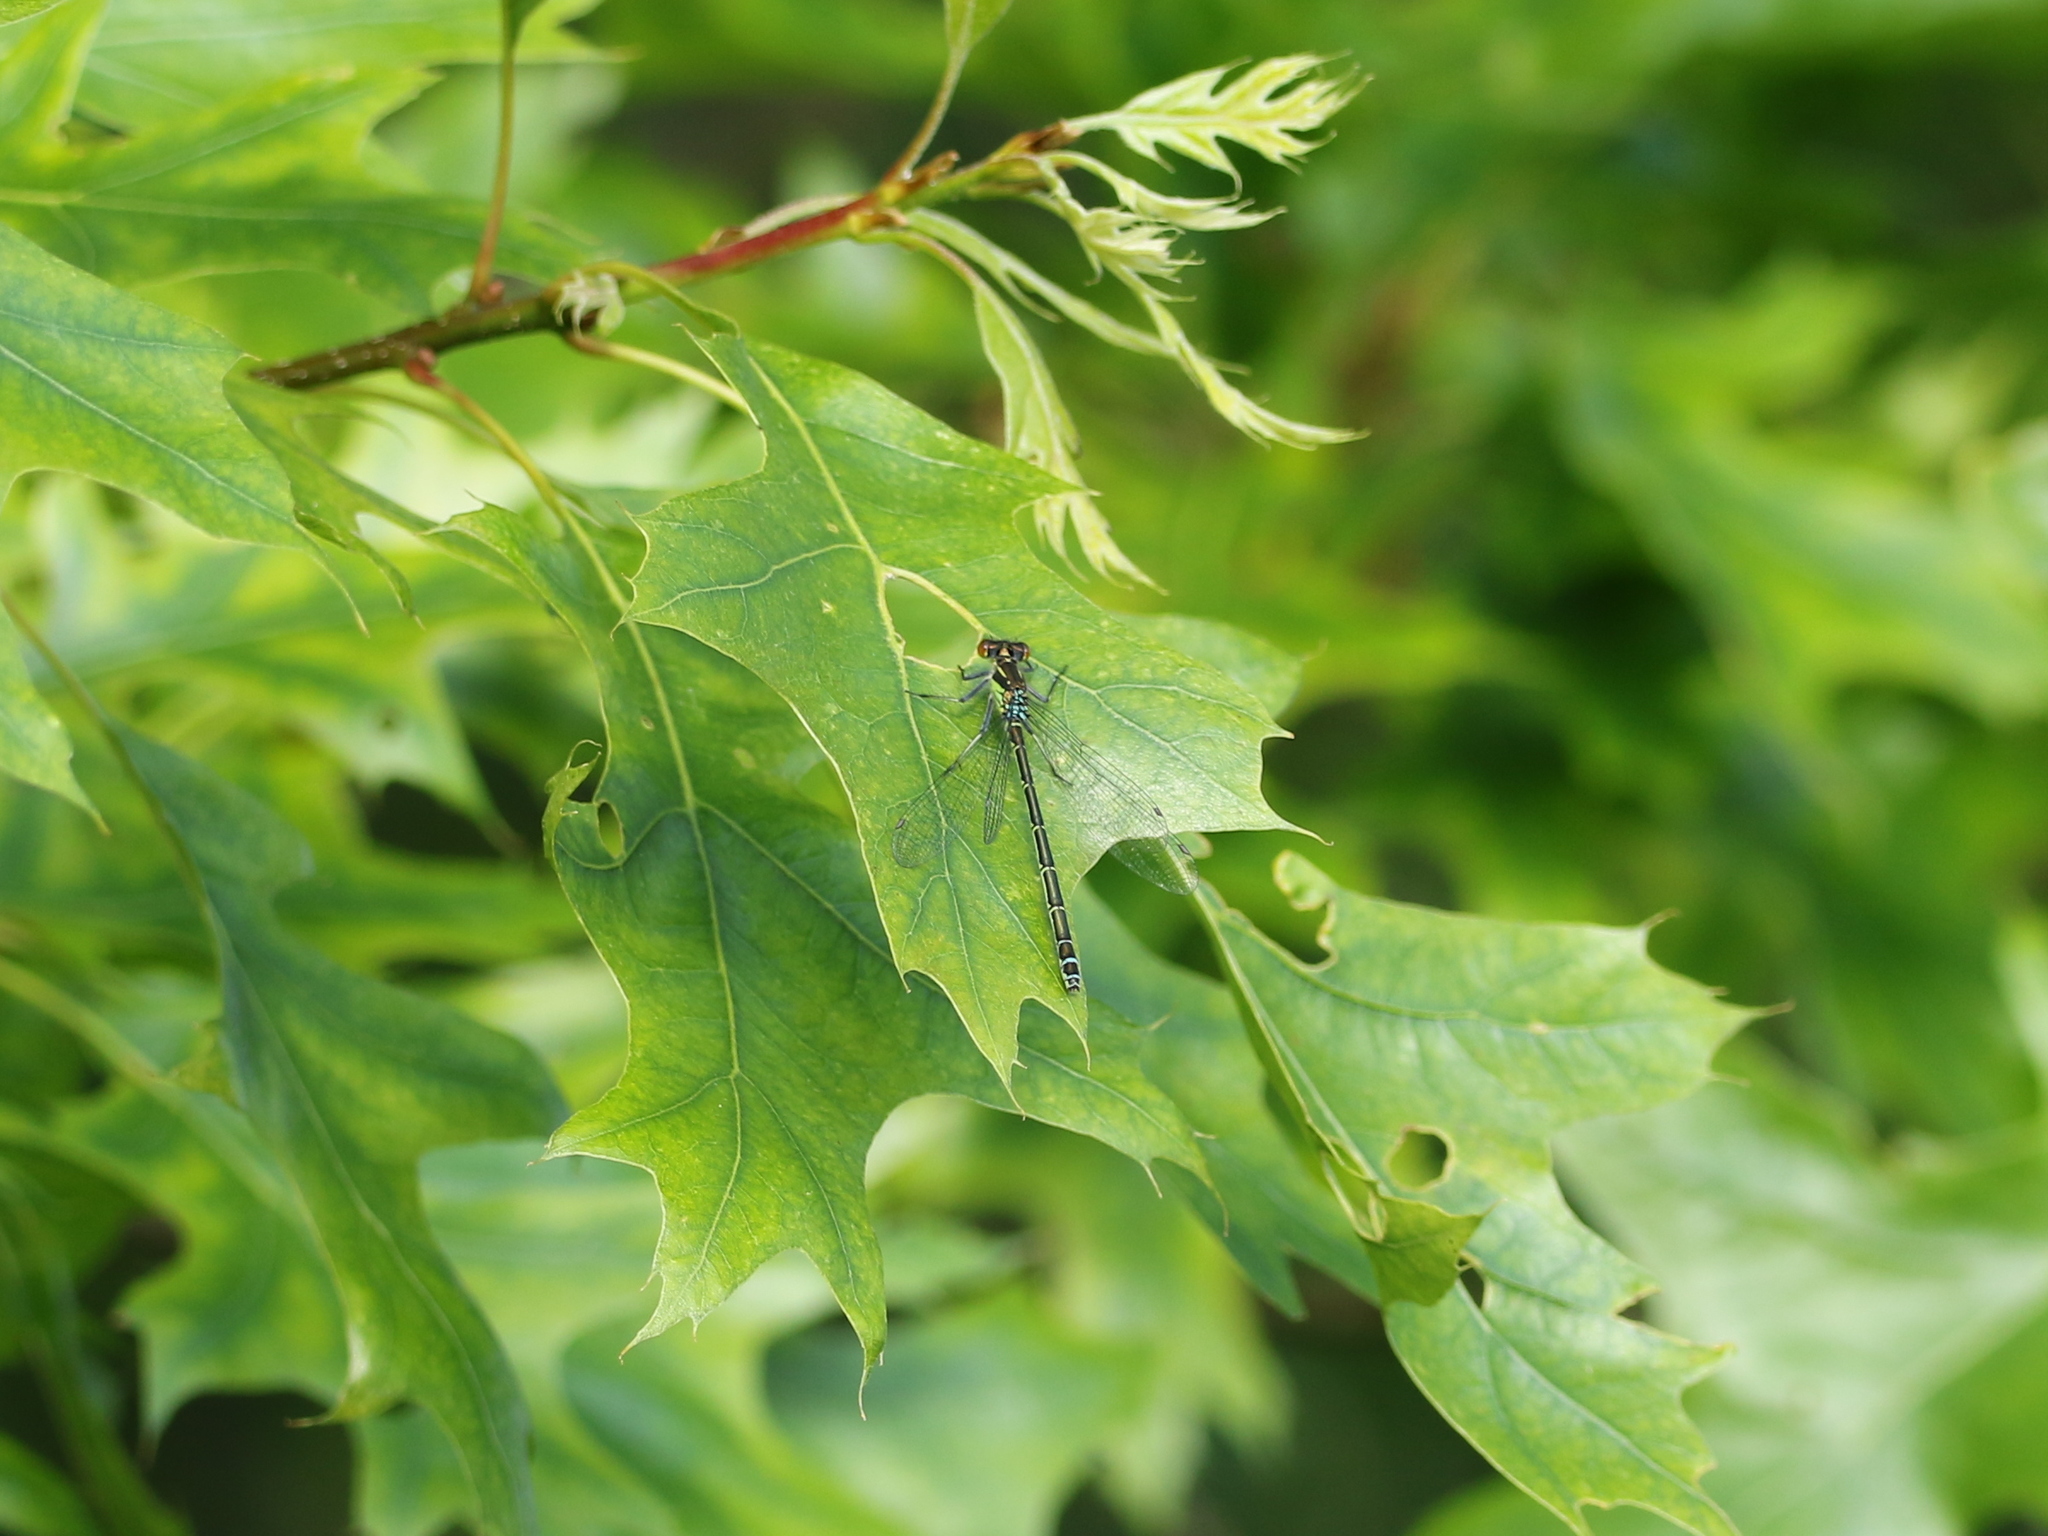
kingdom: Animalia
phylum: Arthropoda
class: Insecta
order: Odonata
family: Coenagrionidae
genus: Erythromma
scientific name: Erythromma najas
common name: Red-eyed damselfly
